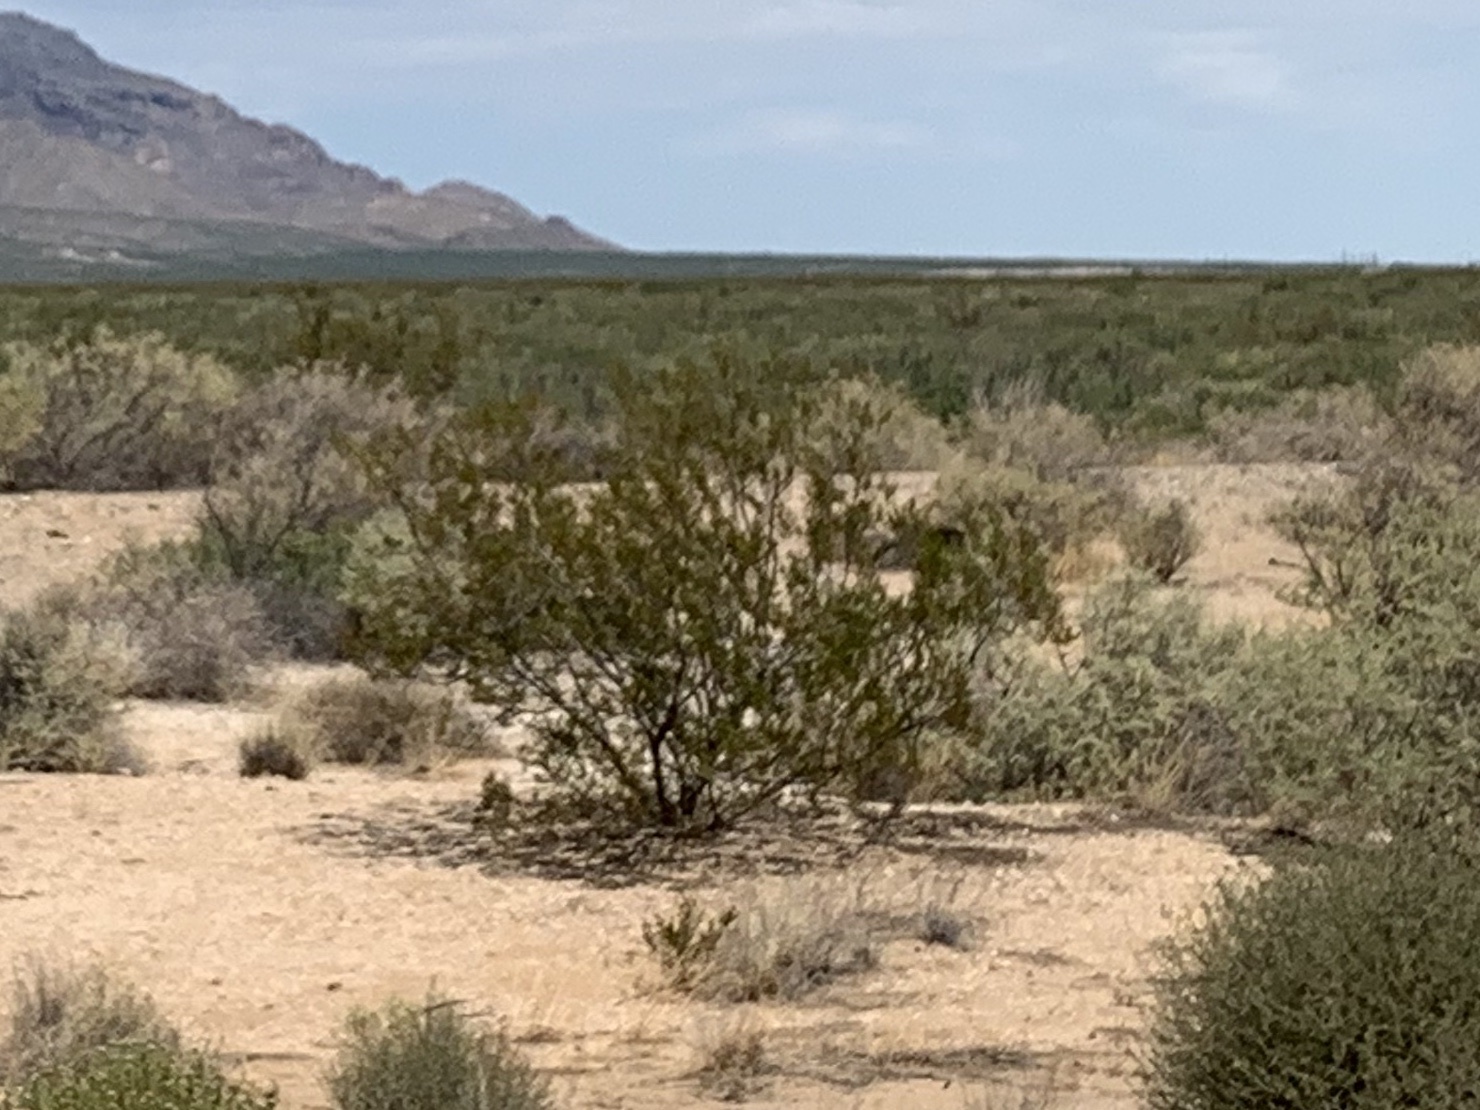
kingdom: Plantae
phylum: Tracheophyta
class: Magnoliopsida
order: Zygophyllales
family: Zygophyllaceae
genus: Larrea
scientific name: Larrea tridentata
